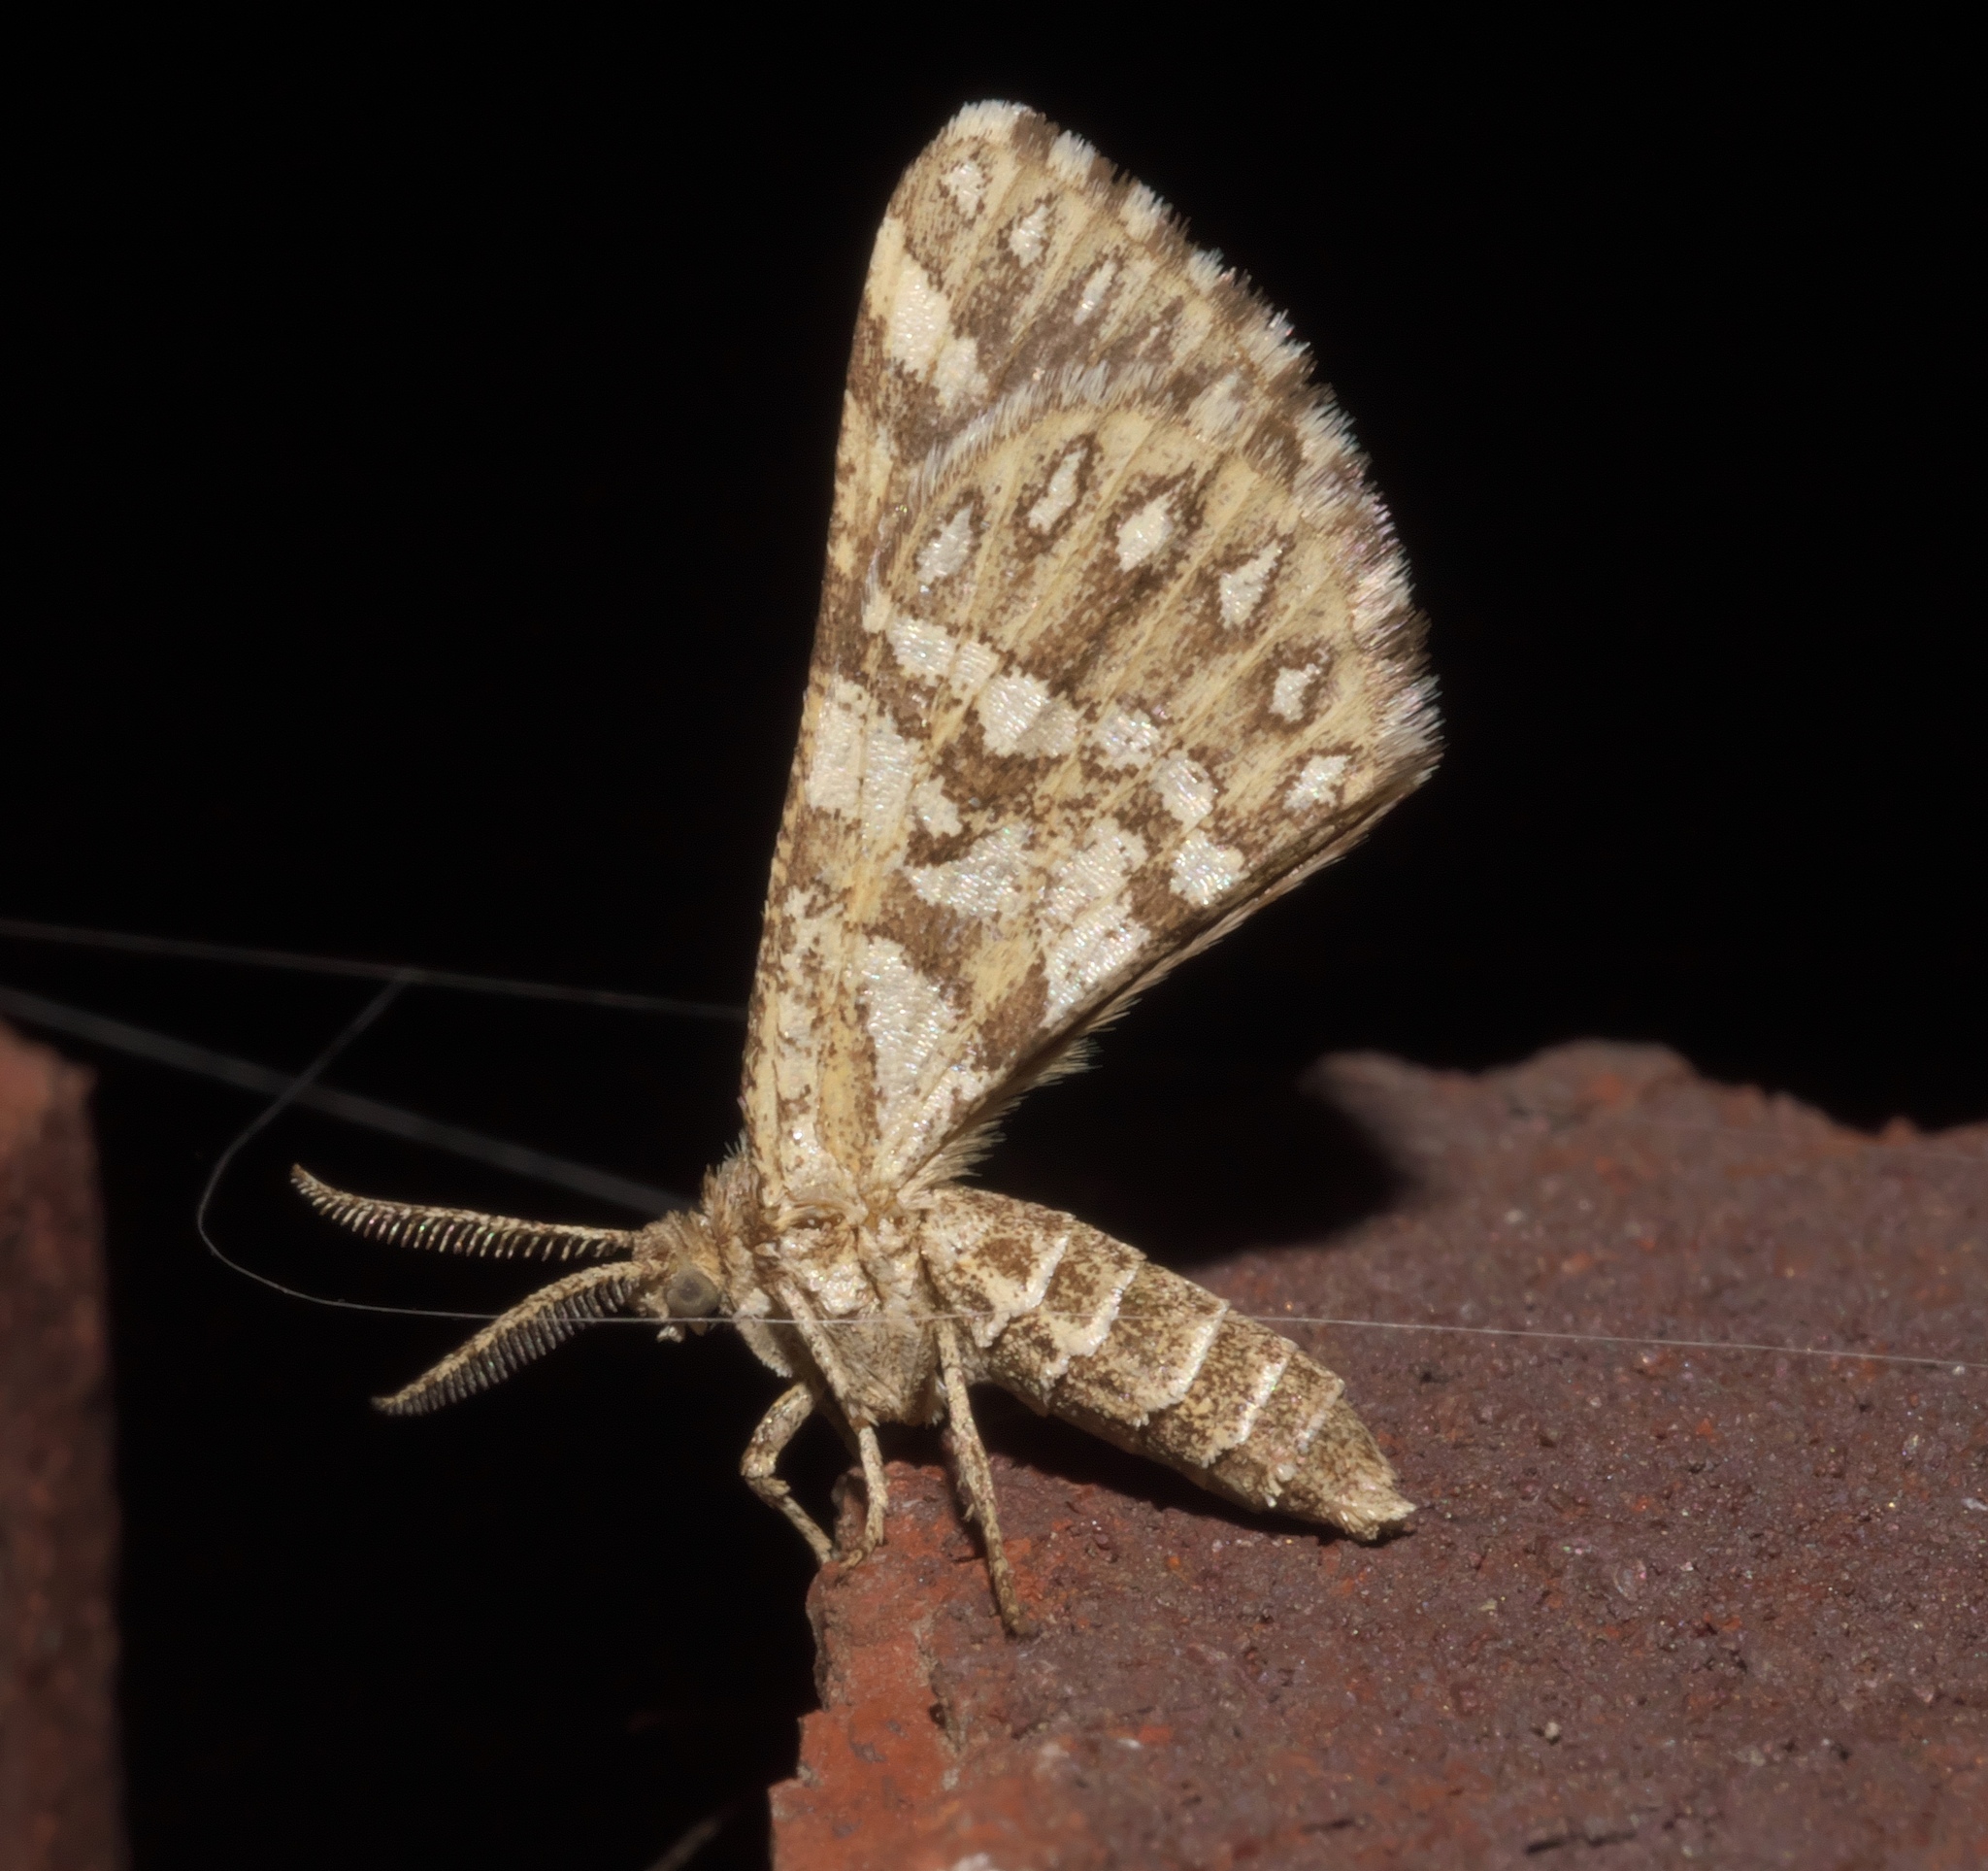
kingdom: Animalia
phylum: Arthropoda
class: Insecta
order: Lepidoptera
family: Geometridae
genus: Narraga
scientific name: Narraga fimetaria
